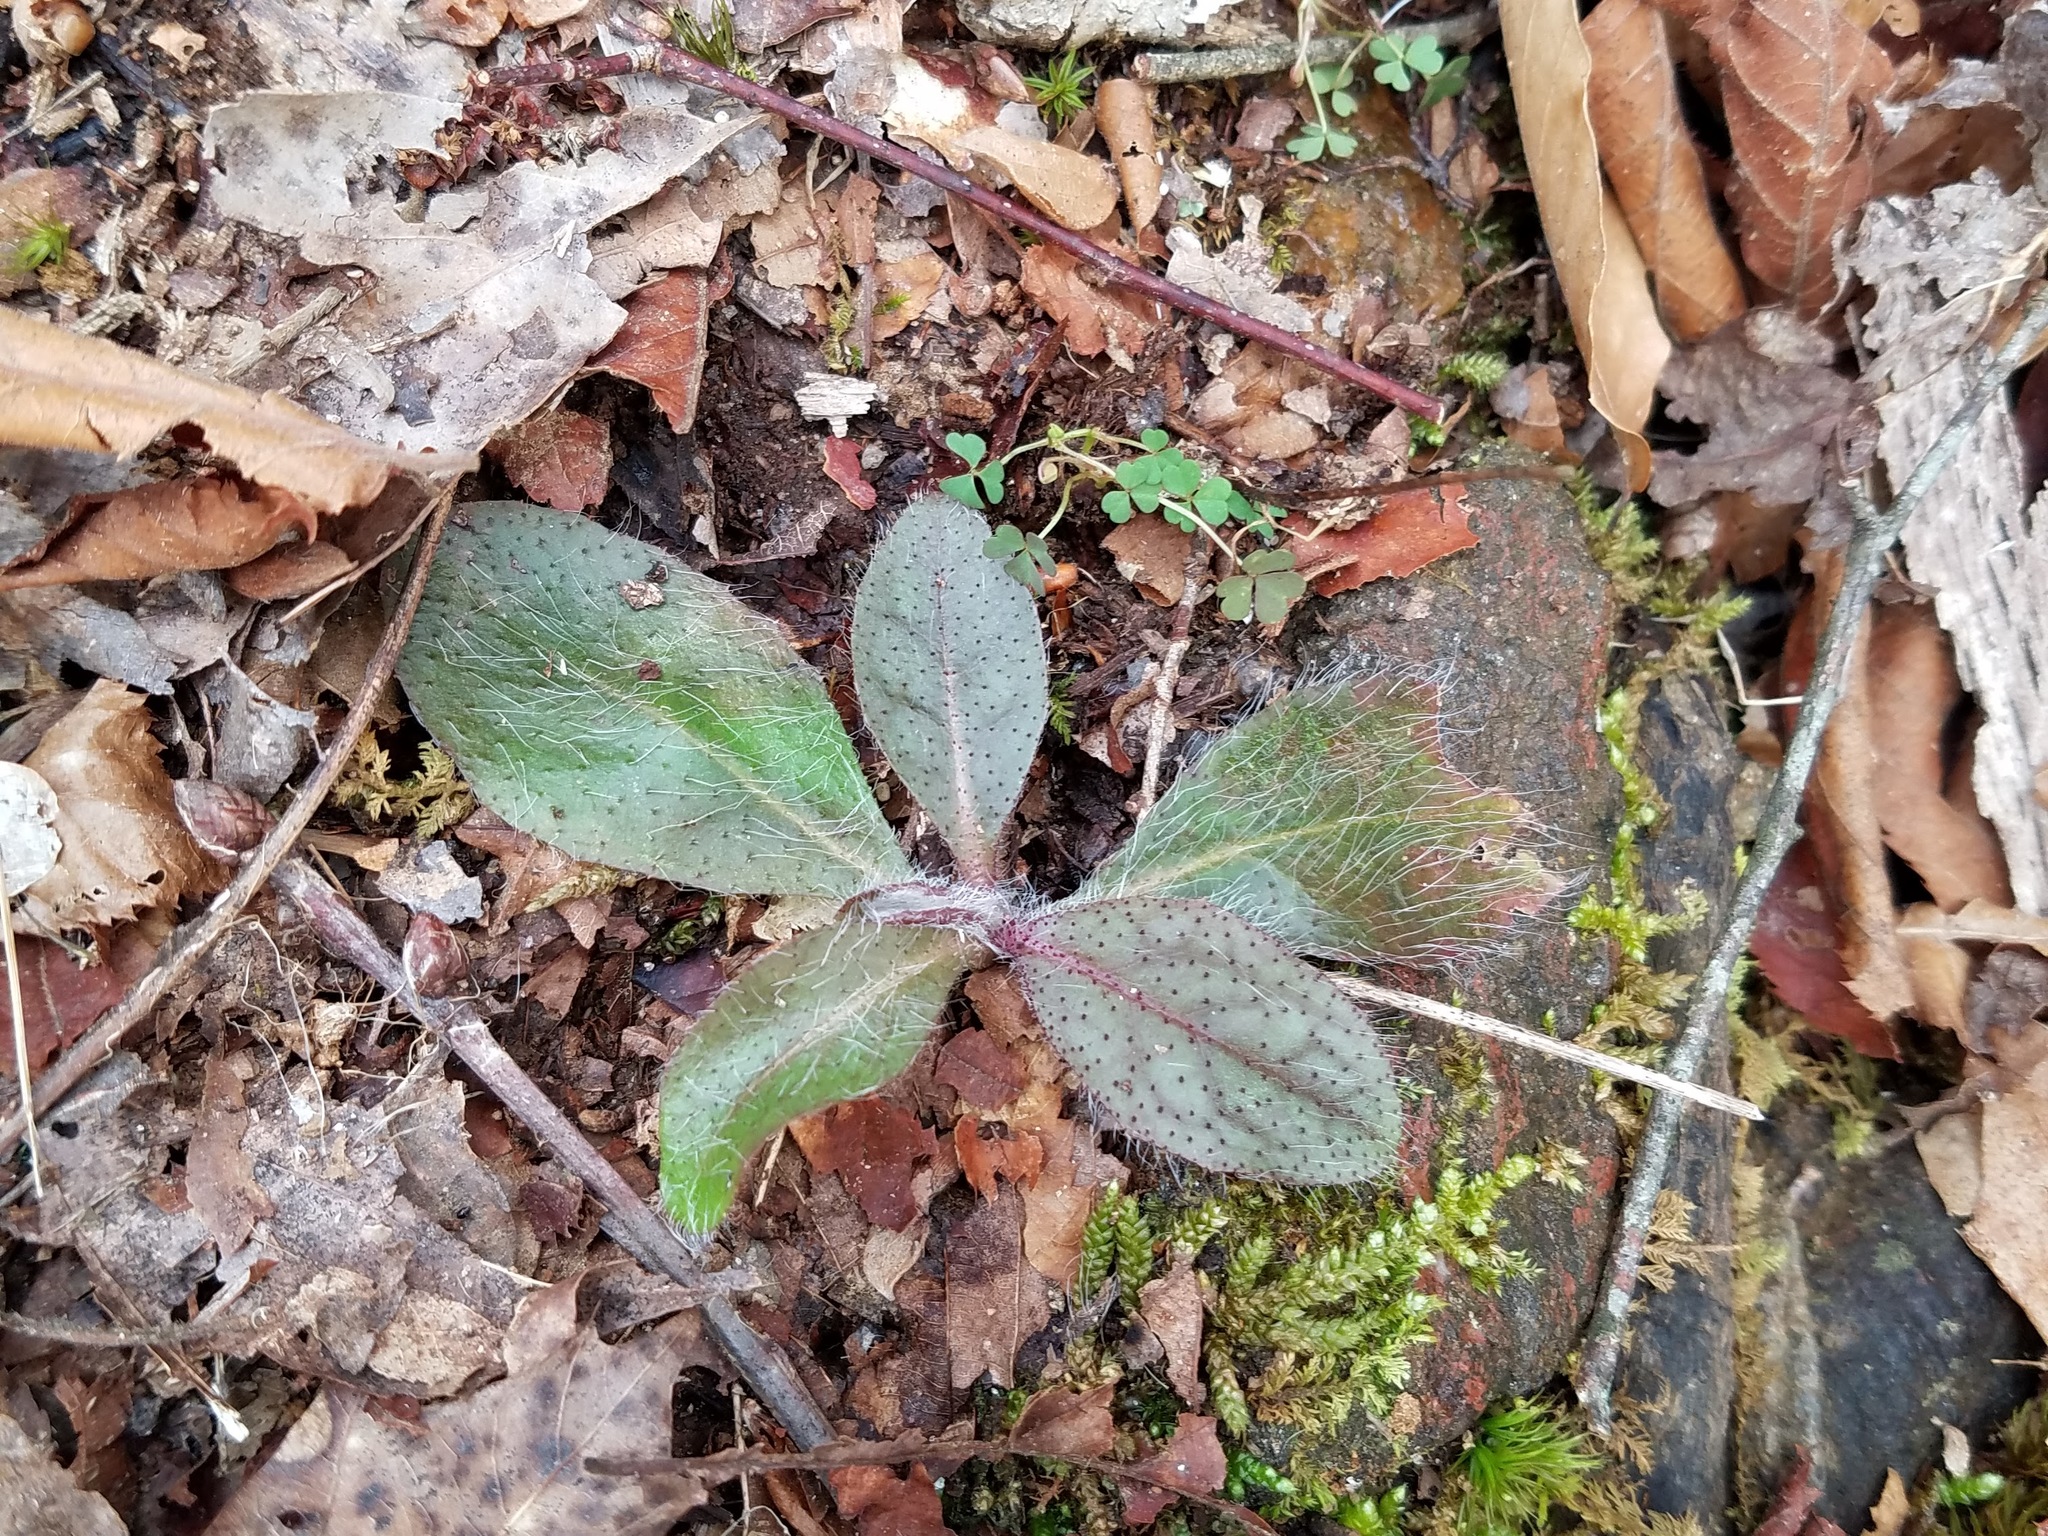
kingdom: Plantae
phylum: Tracheophyta
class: Magnoliopsida
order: Asterales
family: Asteraceae
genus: Hieracium
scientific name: Hieracium venosum
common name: Rattlesnake hawkweed
